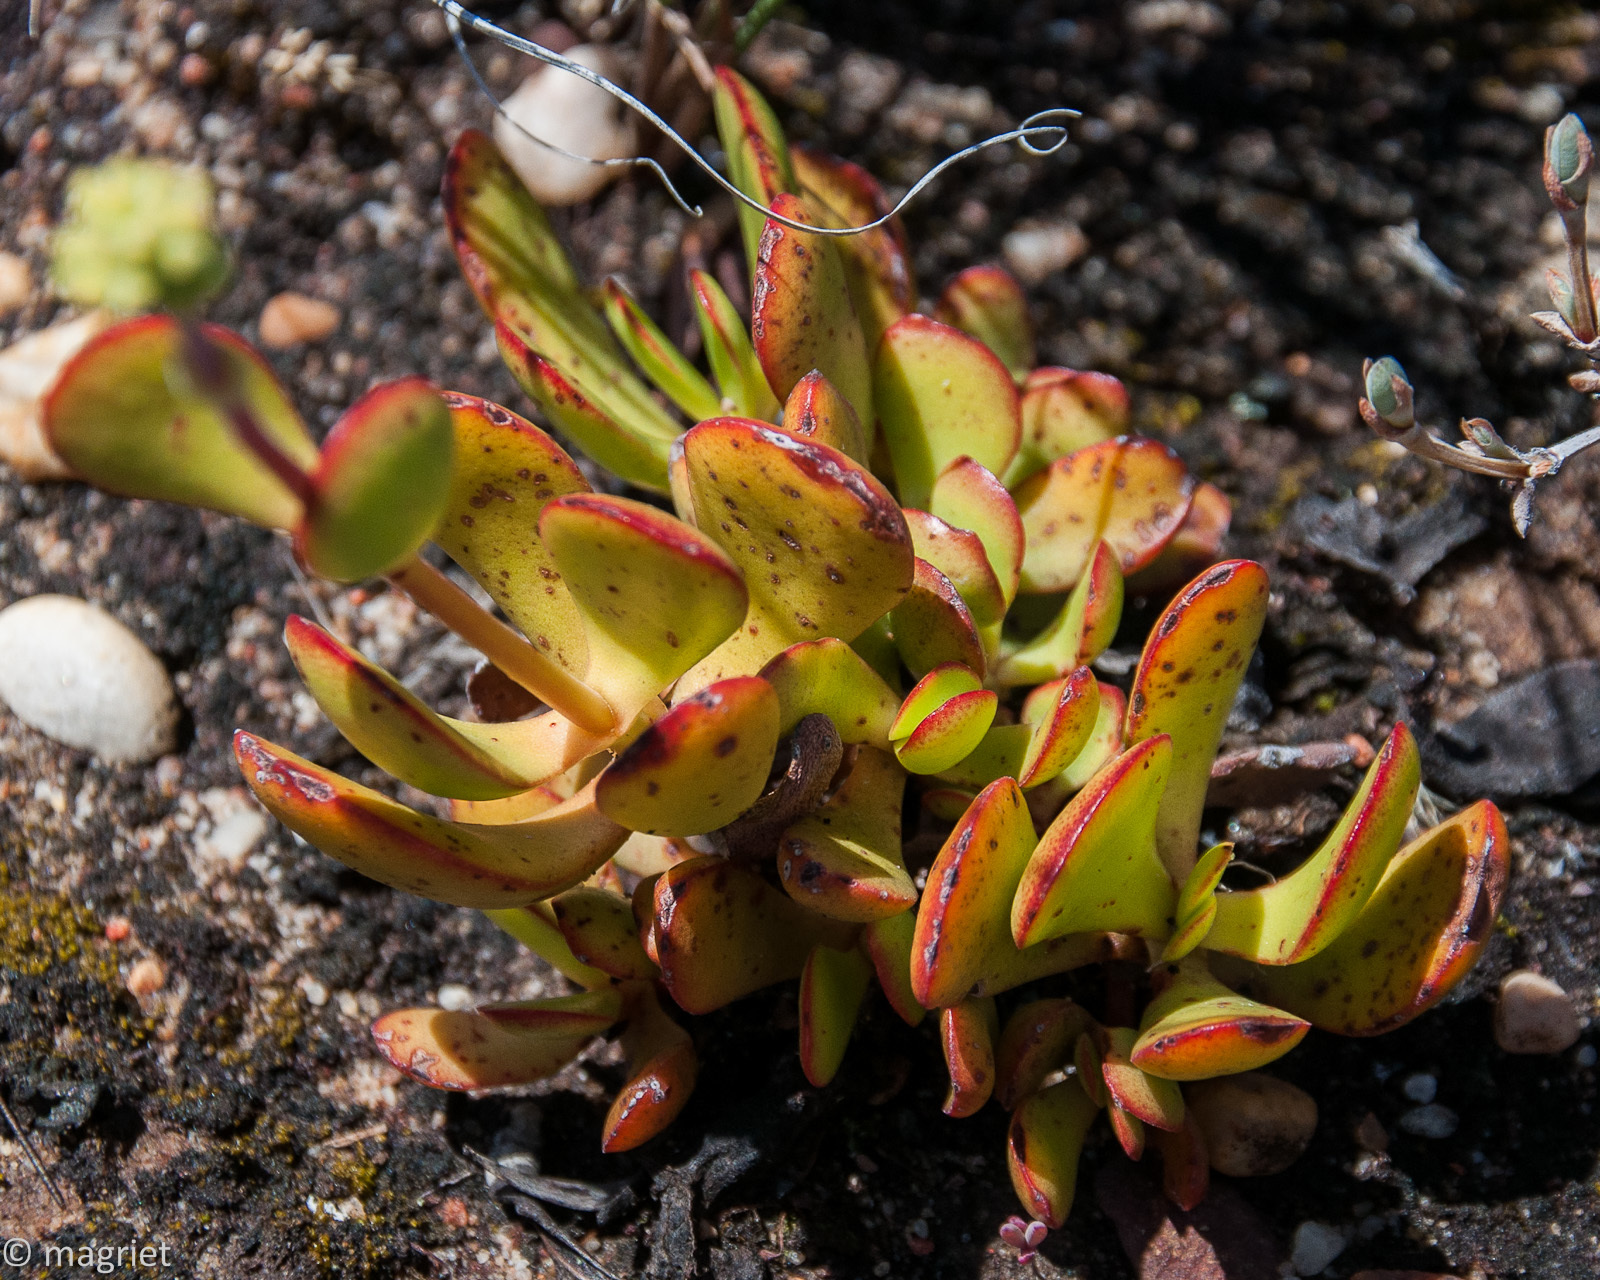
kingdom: Plantae
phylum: Tracheophyta
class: Magnoliopsida
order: Saxifragales
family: Crassulaceae
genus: Crassula
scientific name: Crassula atropurpurea
